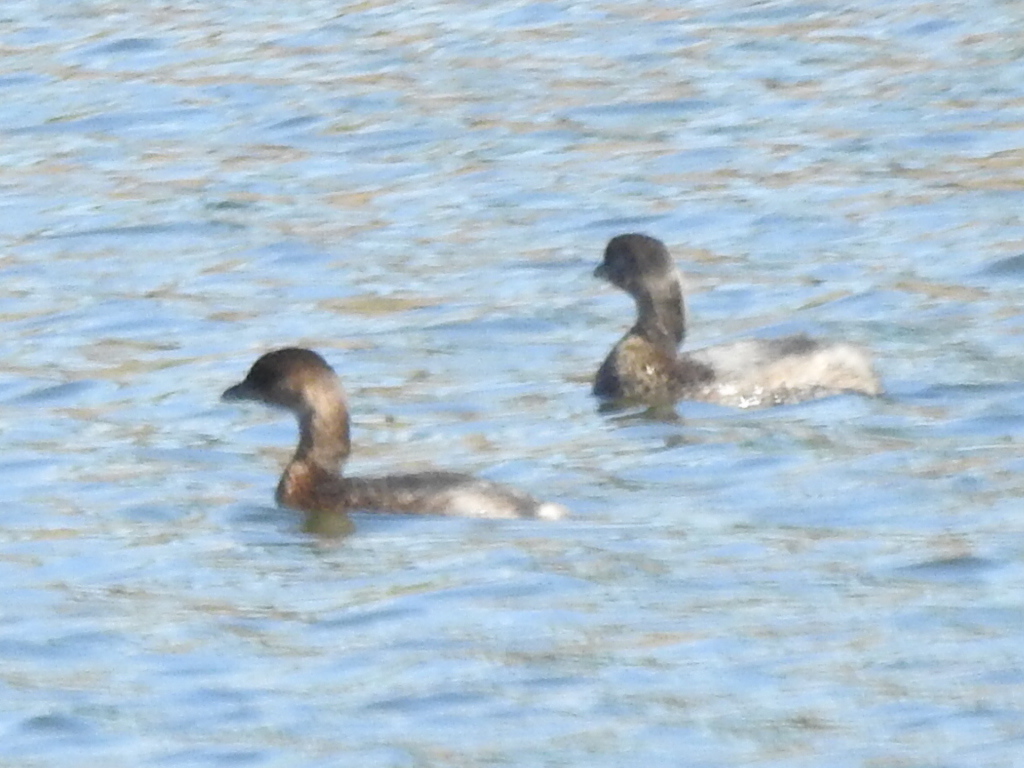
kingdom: Animalia
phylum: Chordata
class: Aves
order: Podicipediformes
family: Podicipedidae
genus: Podilymbus
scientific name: Podilymbus podiceps
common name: Pied-billed grebe
